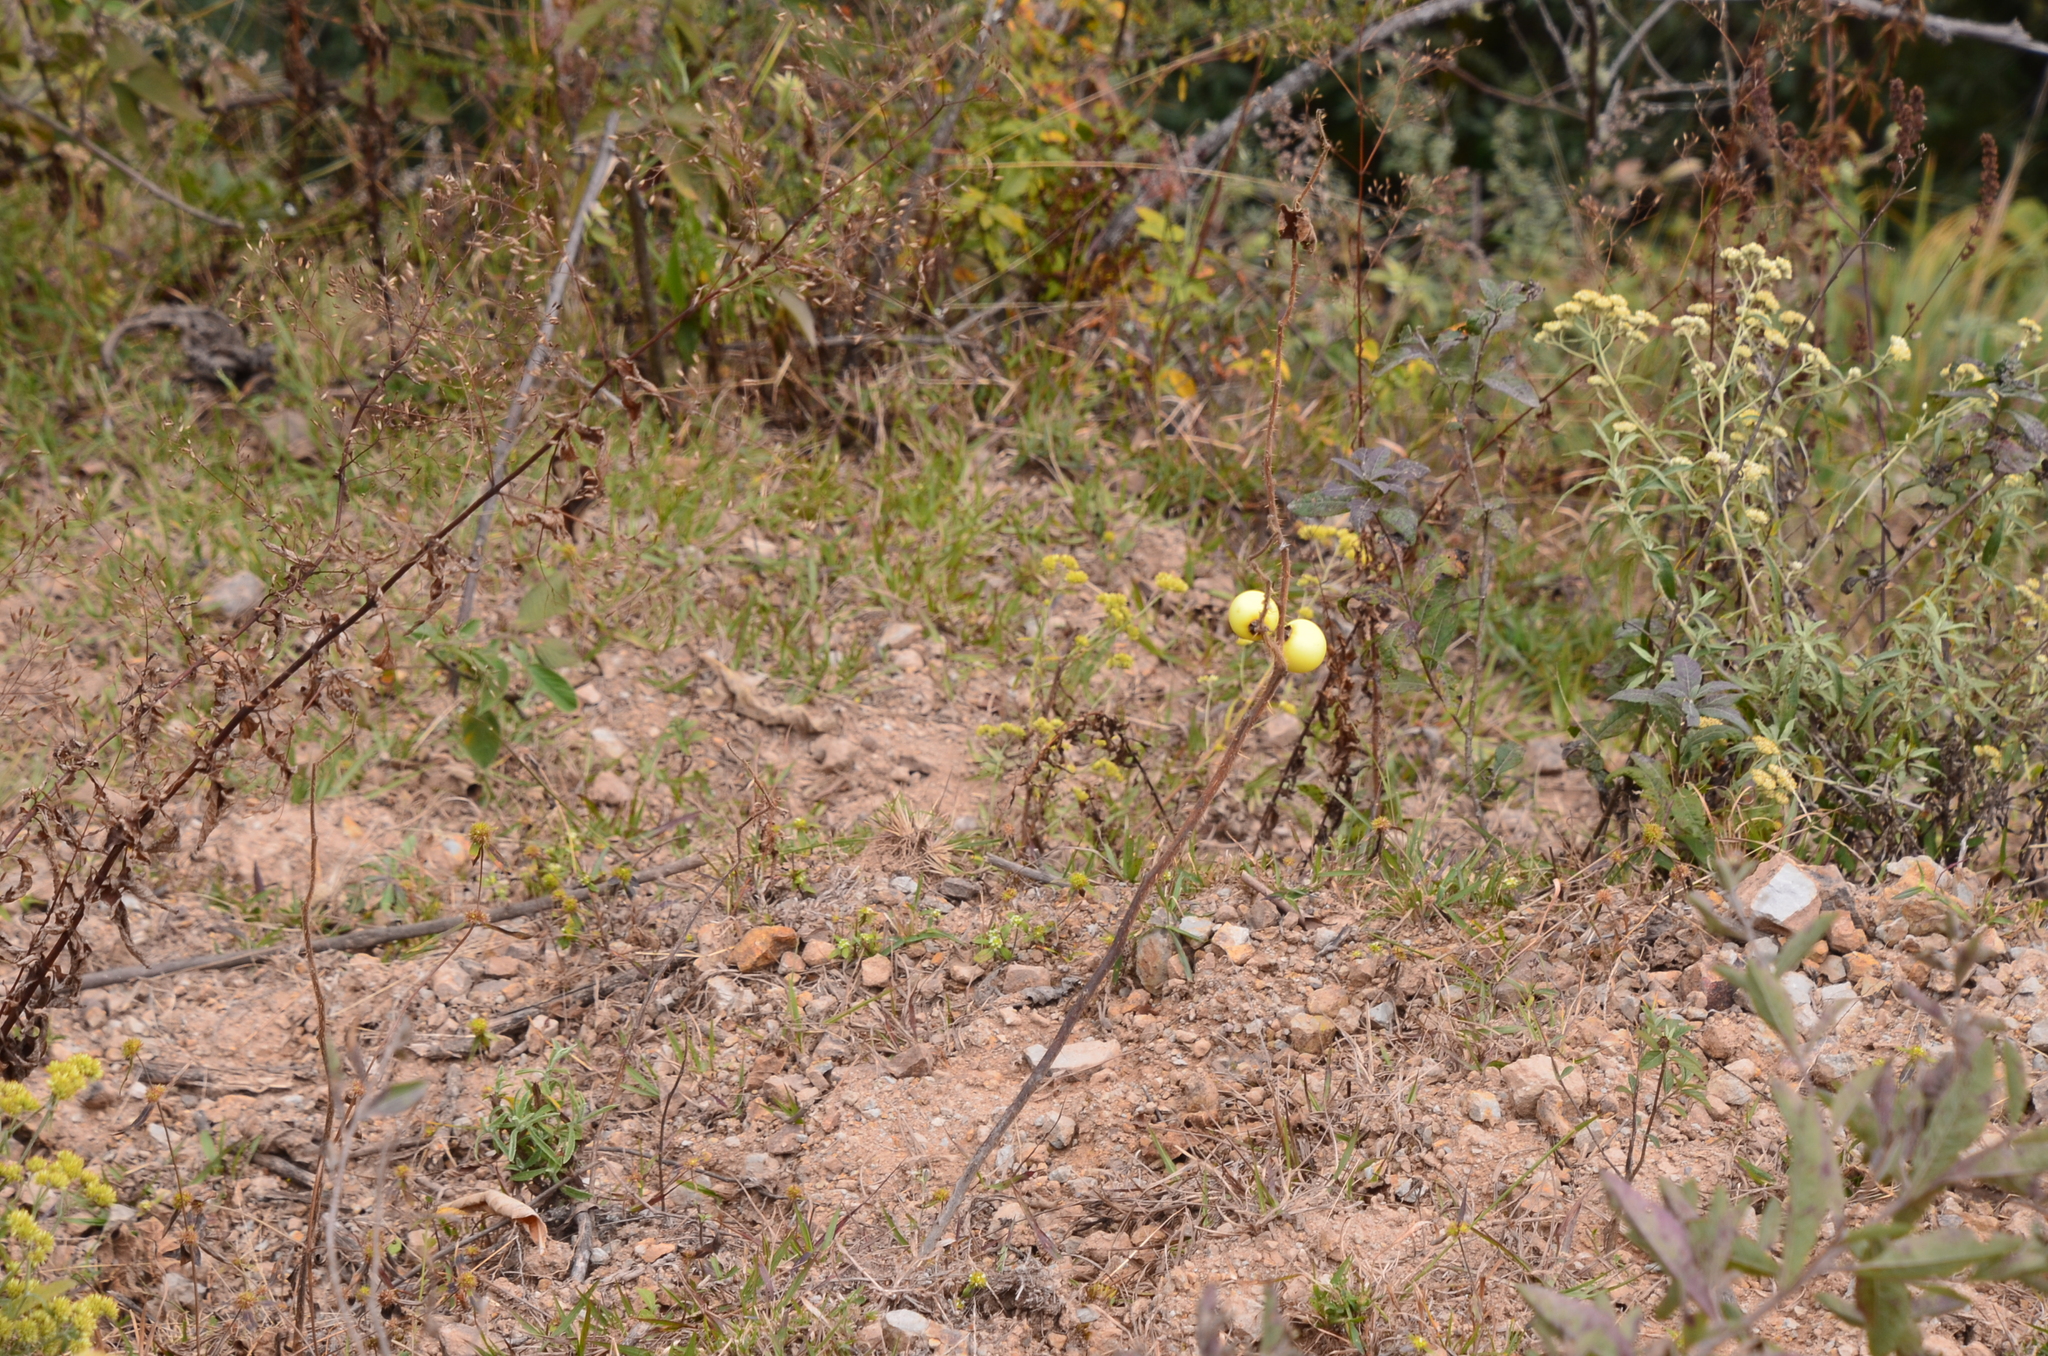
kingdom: Plantae
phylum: Tracheophyta
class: Magnoliopsida
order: Solanales
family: Solanaceae
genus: Solanum
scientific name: Solanum palinacanthum
